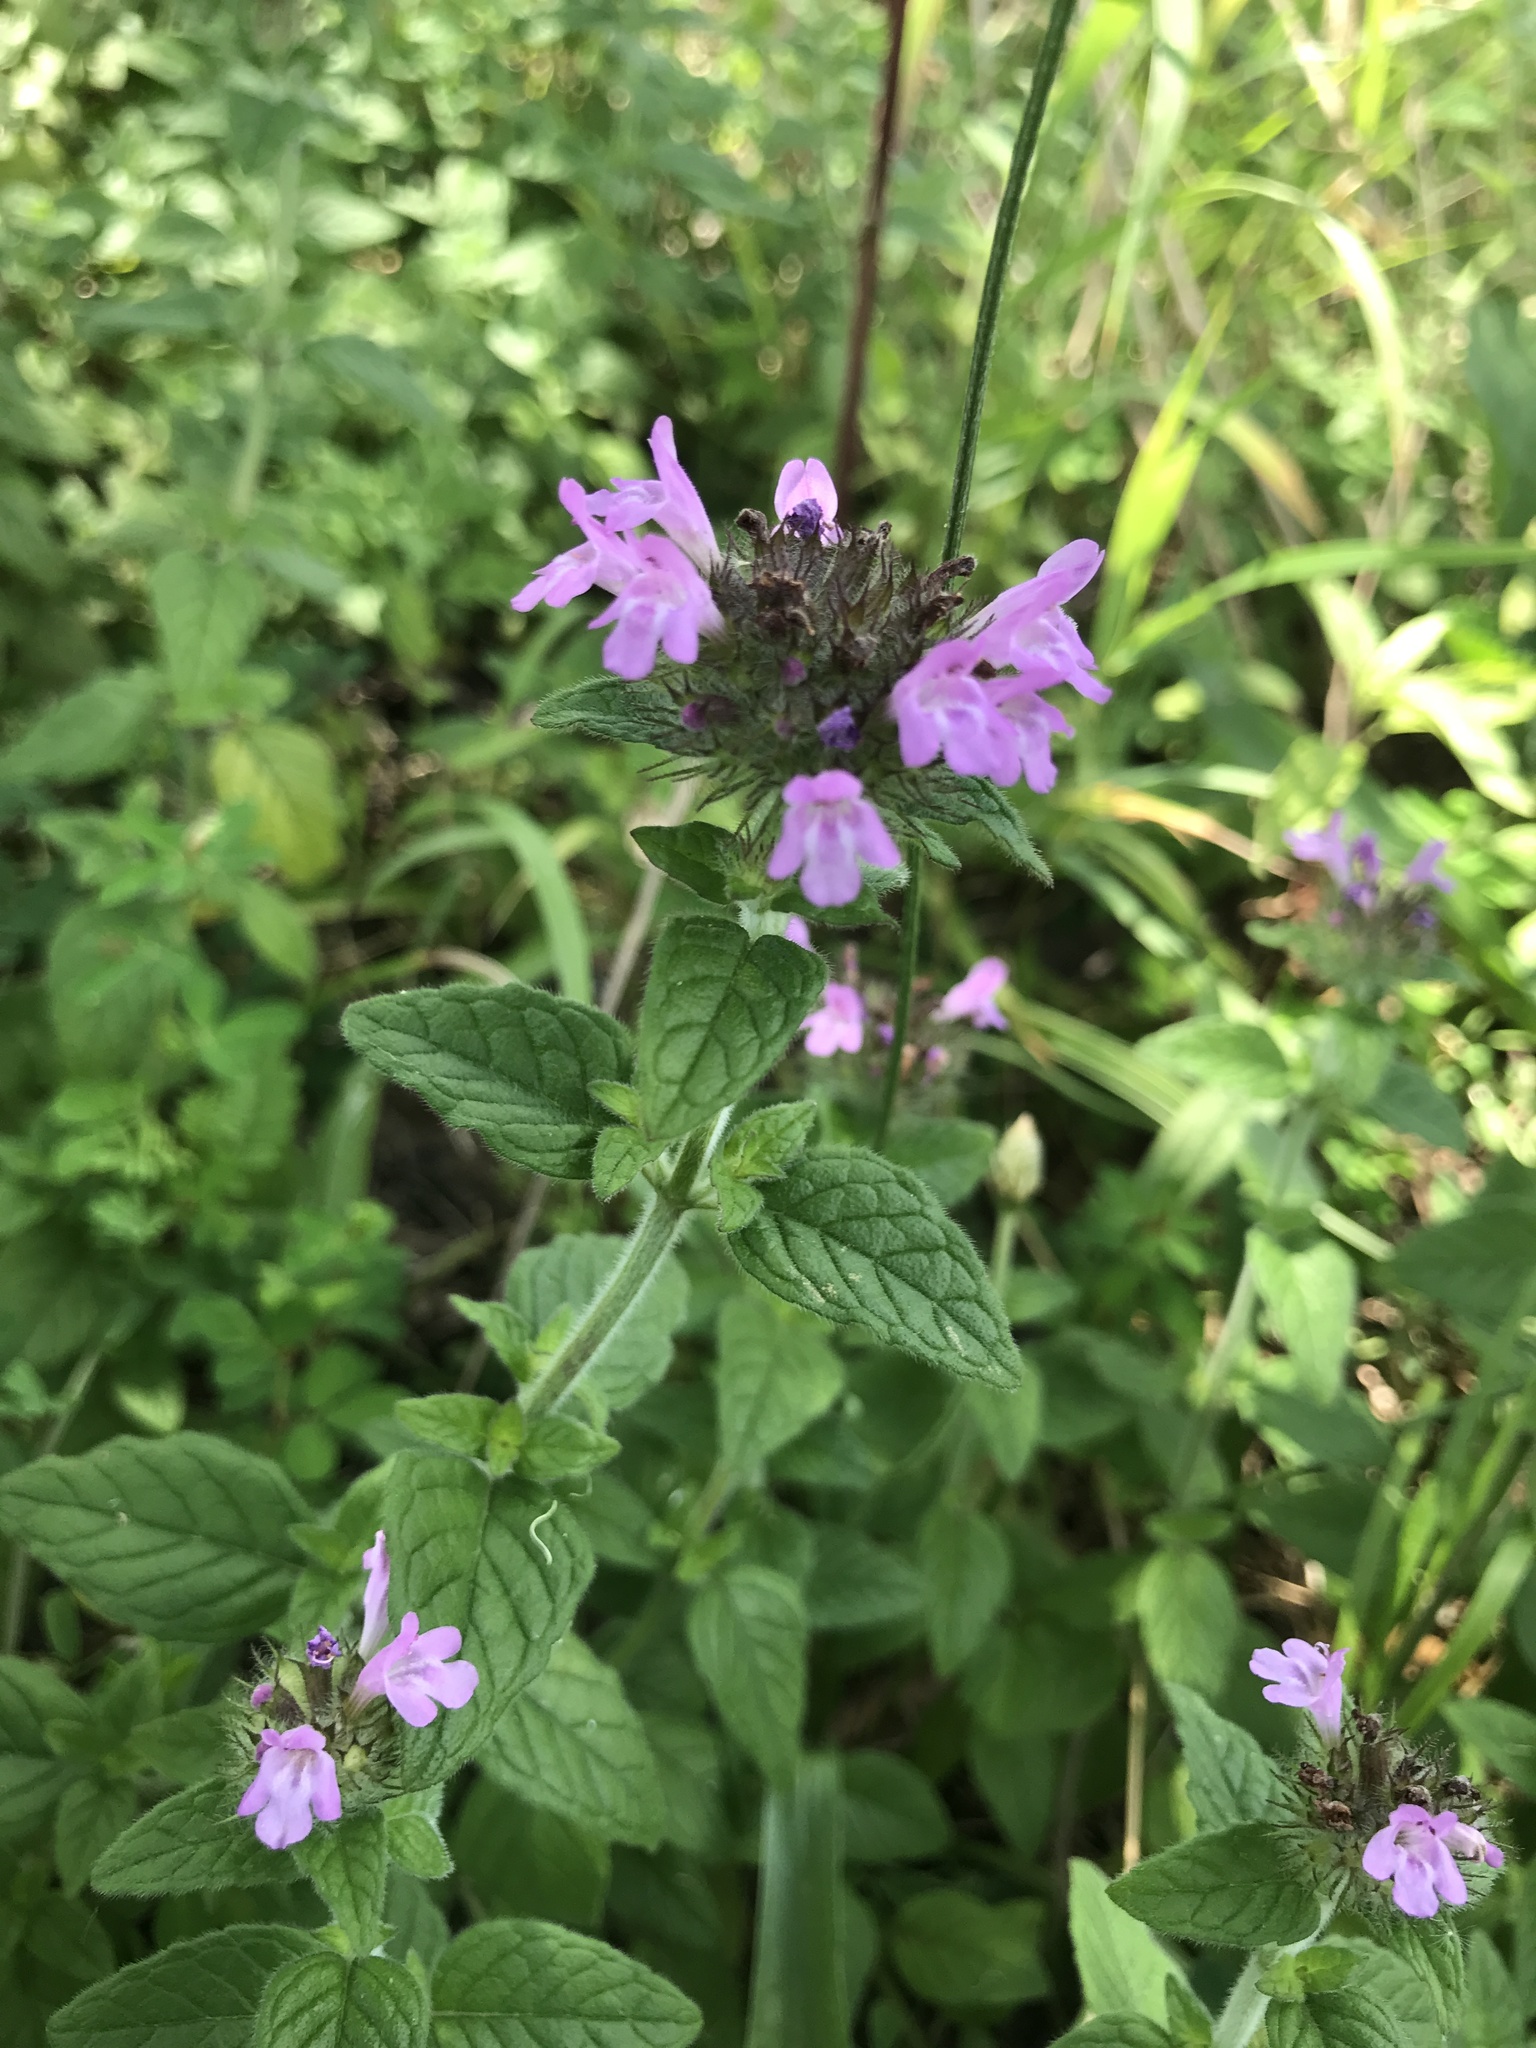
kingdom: Plantae
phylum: Tracheophyta
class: Magnoliopsida
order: Lamiales
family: Lamiaceae
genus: Clinopodium
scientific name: Clinopodium vulgare
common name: Wild basil
